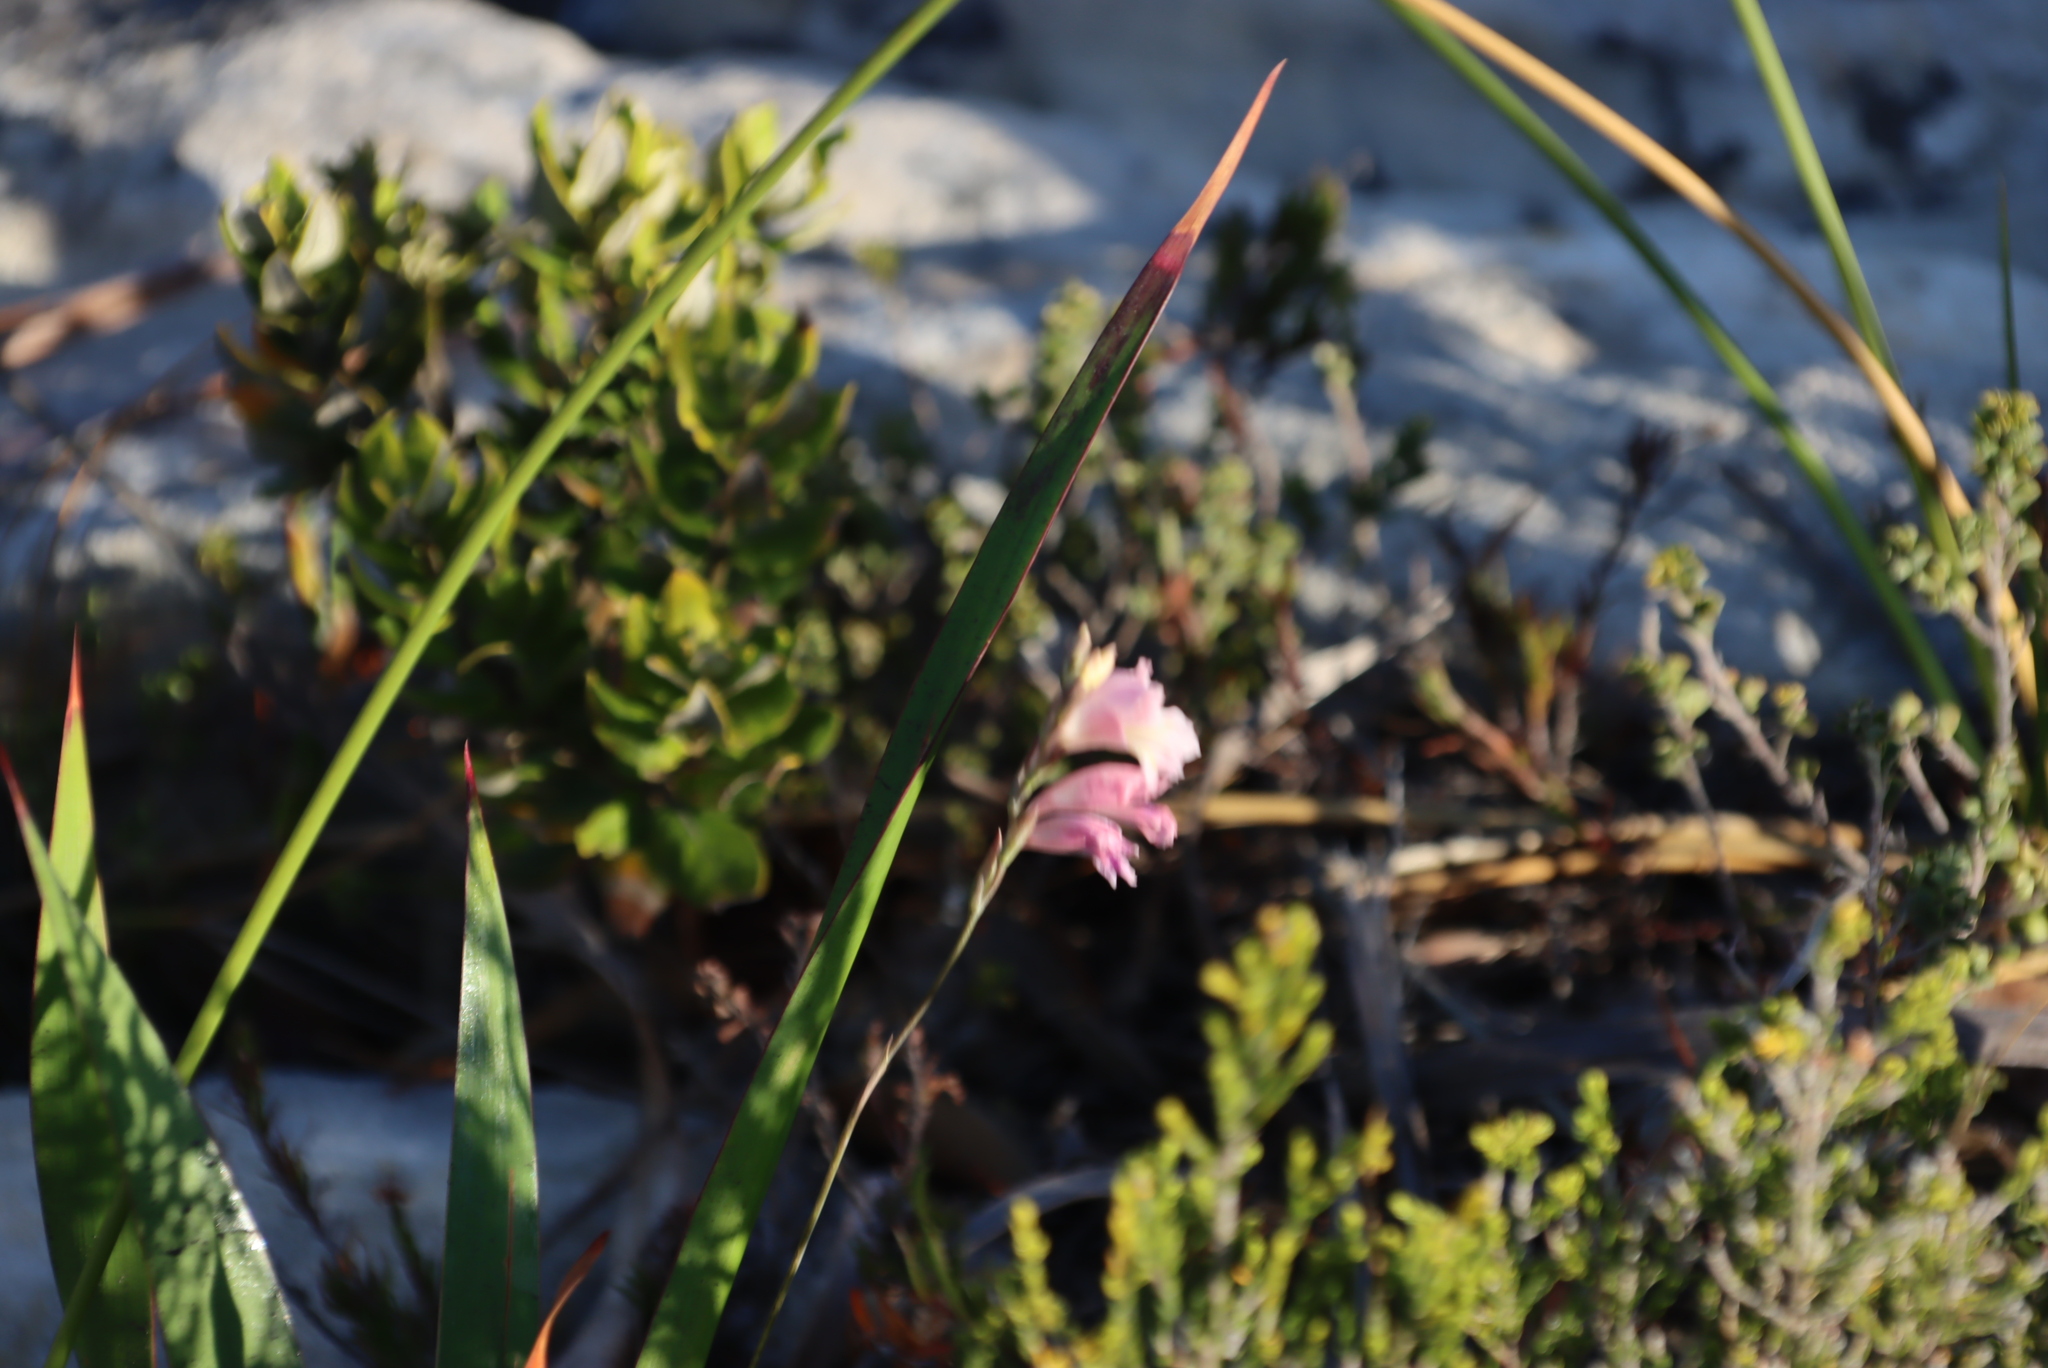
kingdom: Plantae
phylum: Tracheophyta
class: Liliopsida
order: Asparagales
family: Iridaceae
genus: Gladiolus
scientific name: Gladiolus brevifolius
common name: March pypie
